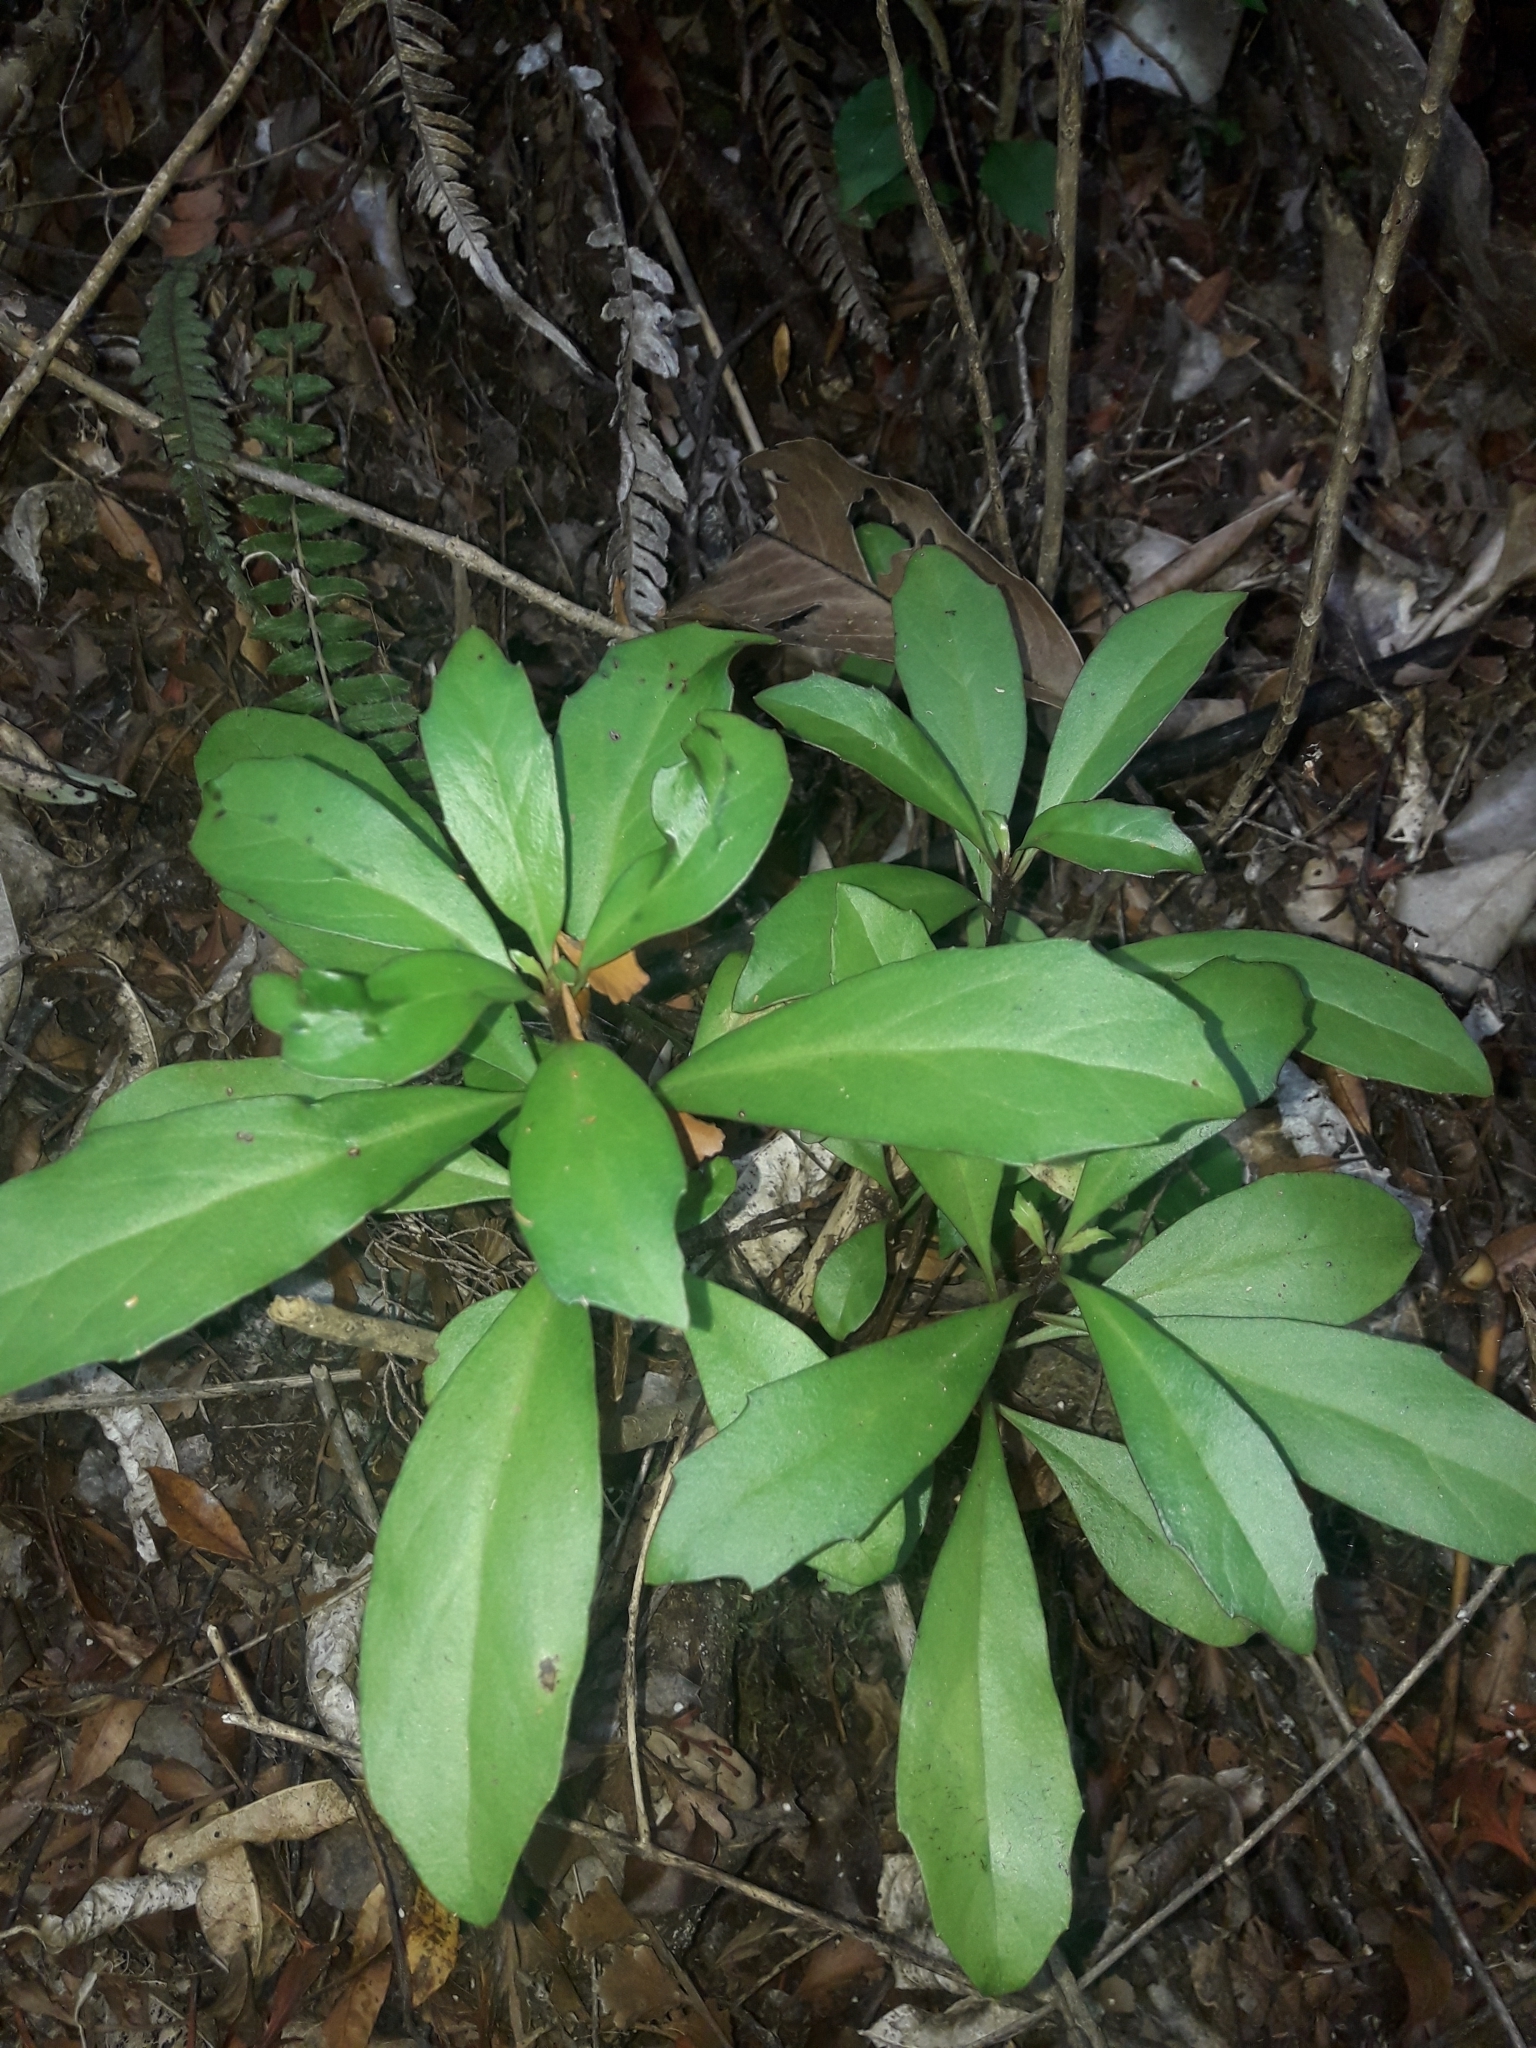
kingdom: Plantae
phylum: Tracheophyta
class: Magnoliopsida
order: Asterales
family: Asteraceae
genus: Brachyglottis
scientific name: Brachyglottis kirkii
